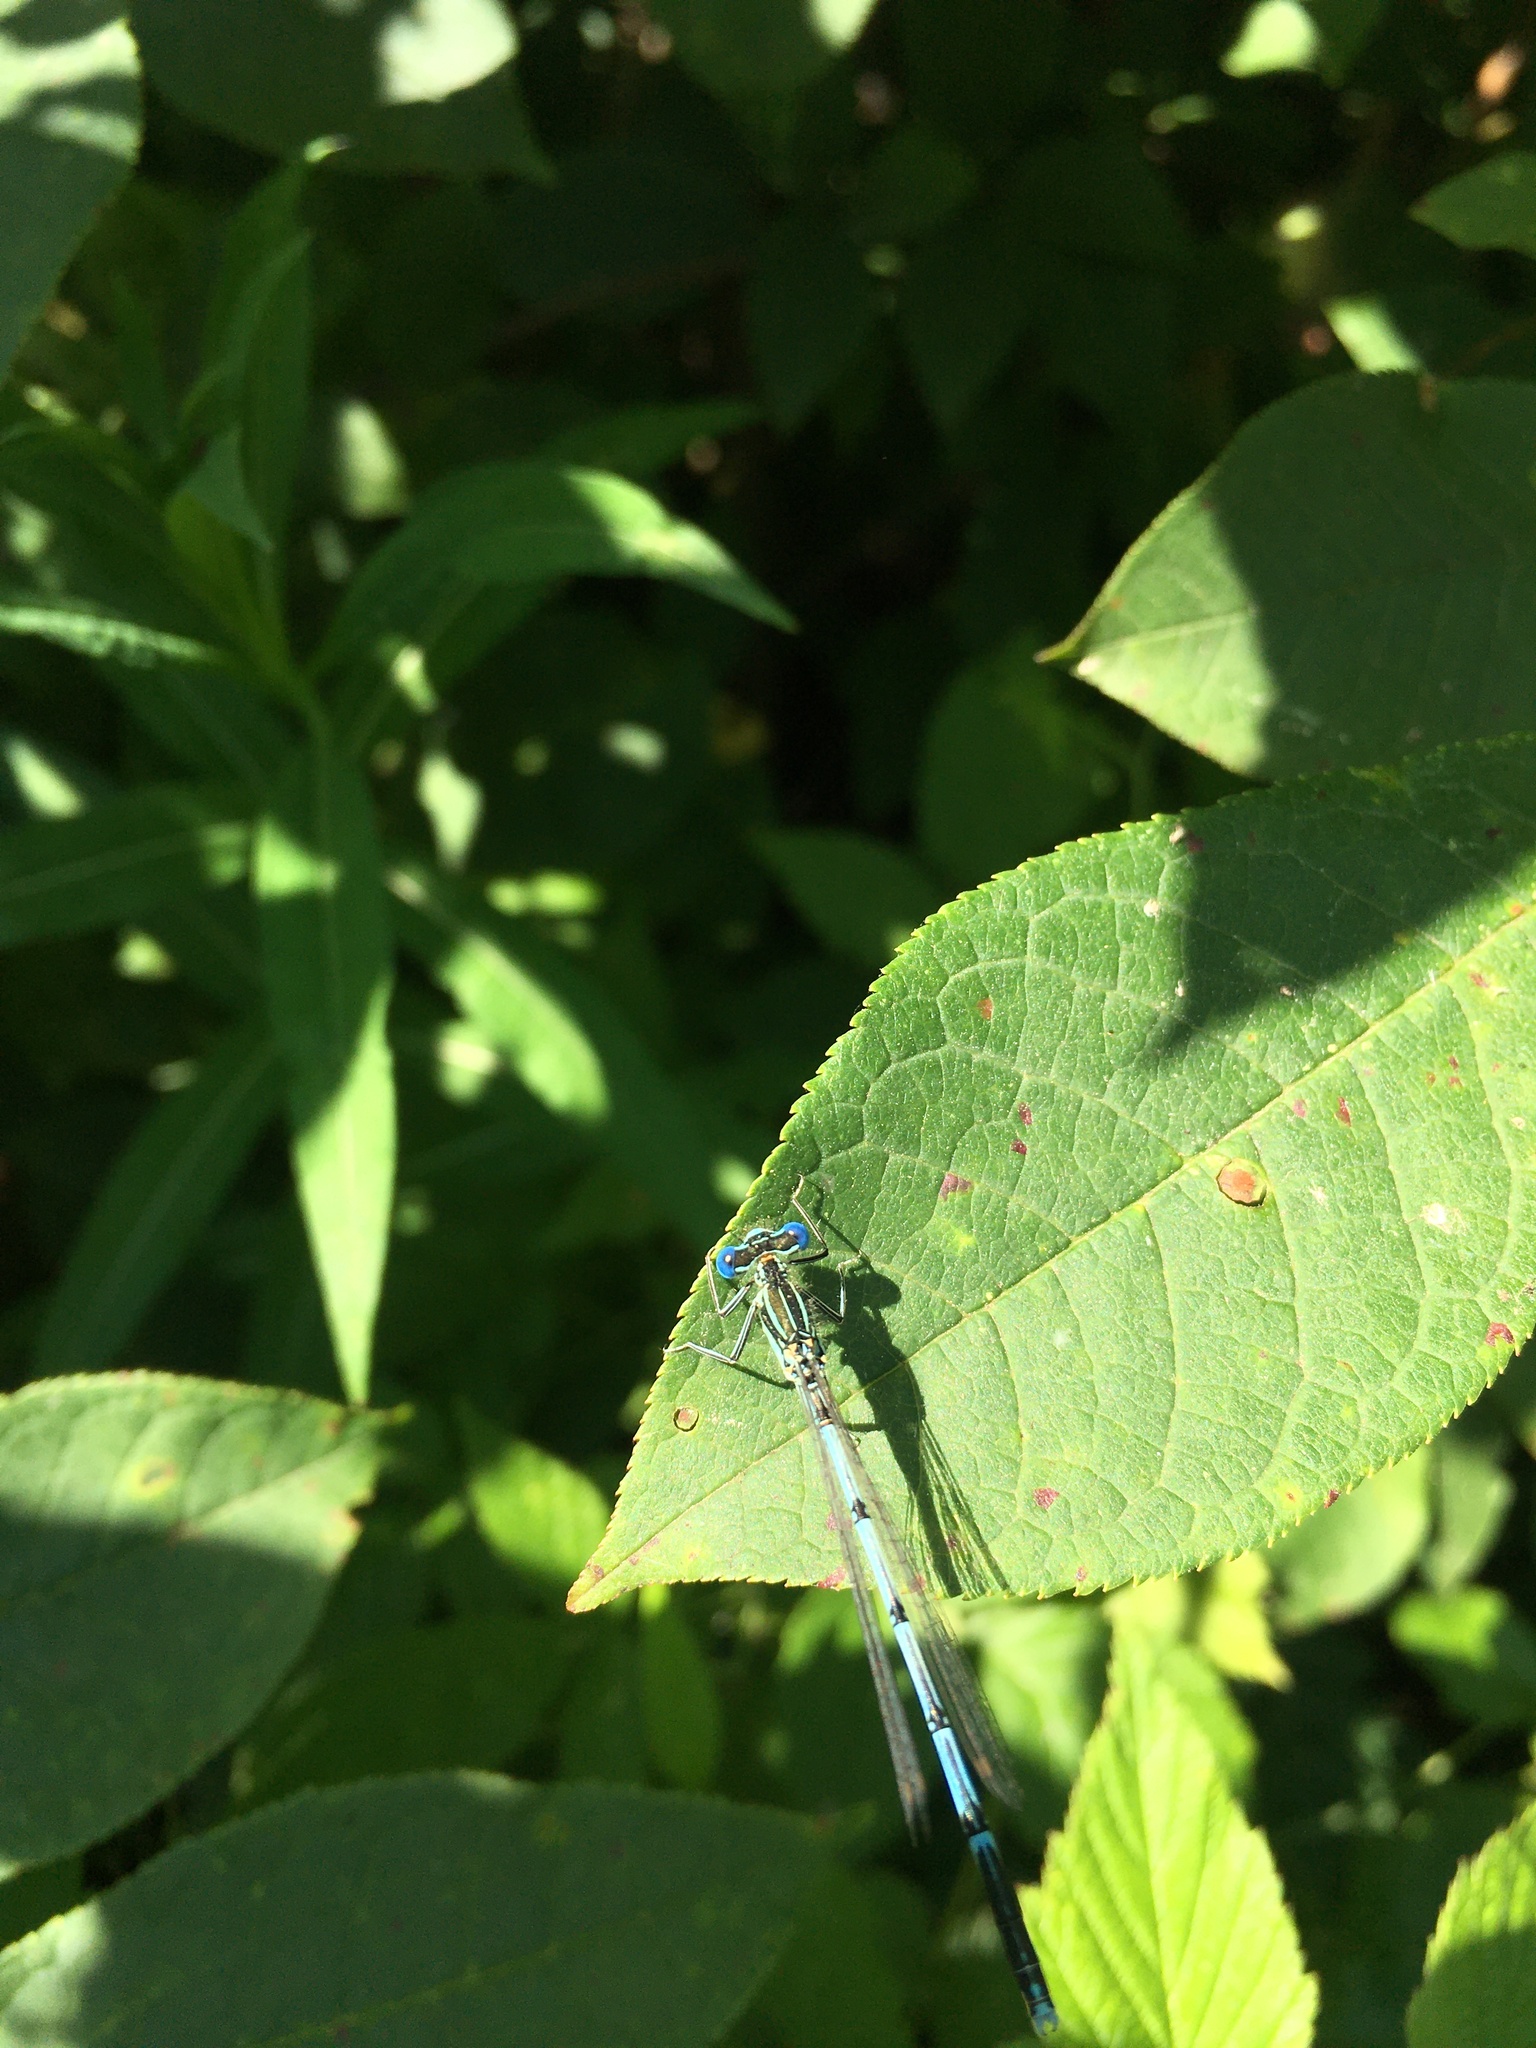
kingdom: Animalia
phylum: Arthropoda
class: Insecta
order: Odonata
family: Platycnemididae
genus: Platycnemis
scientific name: Platycnemis pennipes
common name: White-legged damselfly
